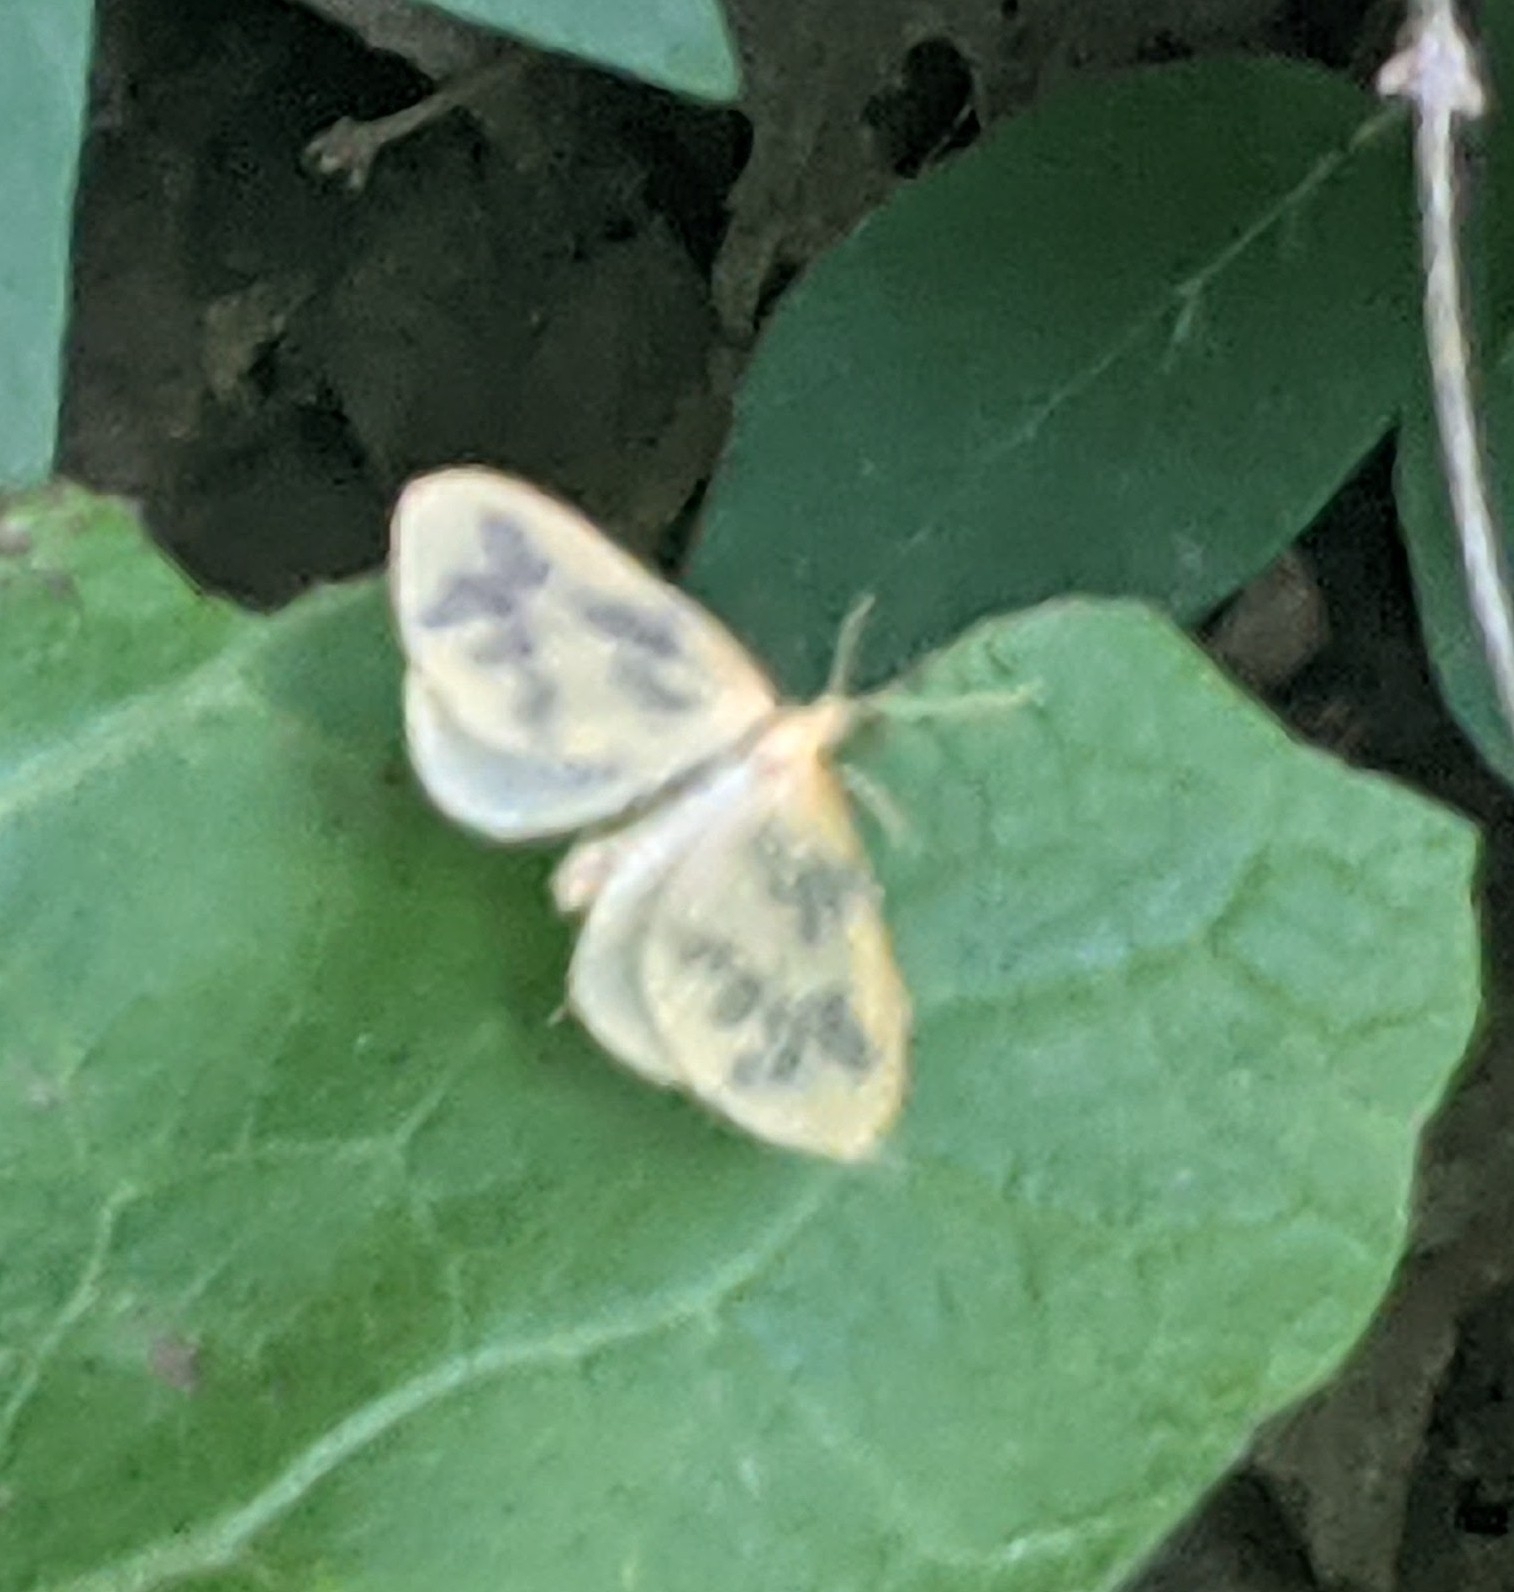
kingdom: Animalia
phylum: Arthropoda
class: Insecta
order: Lepidoptera
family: Geometridae
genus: Eubaphe
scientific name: Eubaphe mendica
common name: Beggar
